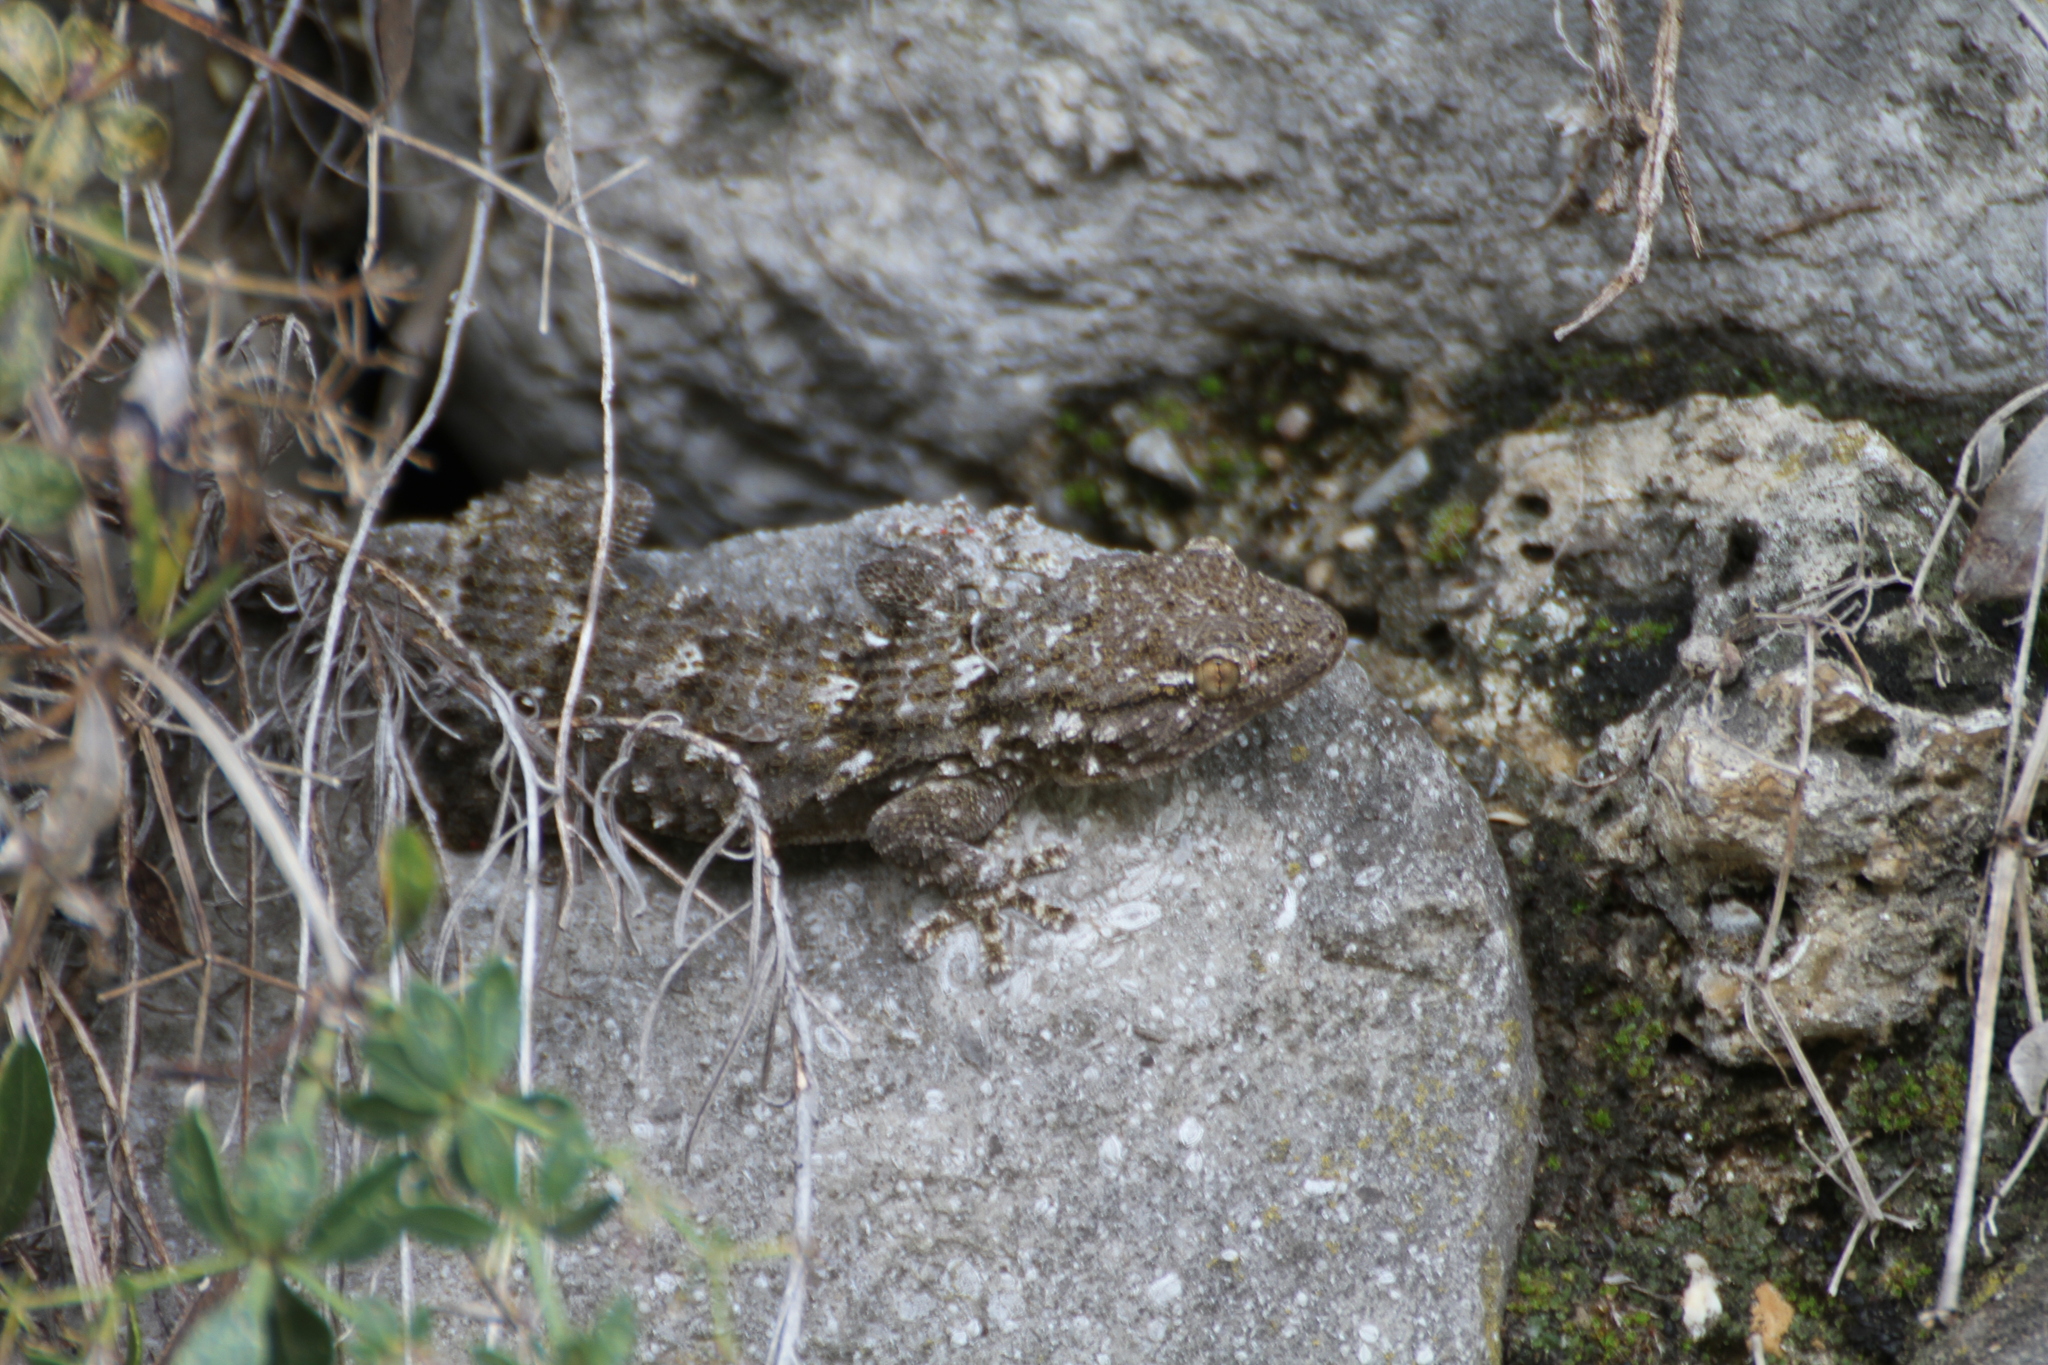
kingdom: Animalia
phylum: Chordata
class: Squamata
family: Phyllodactylidae
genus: Tarentola
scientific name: Tarentola mauritanica
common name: Moorish gecko
